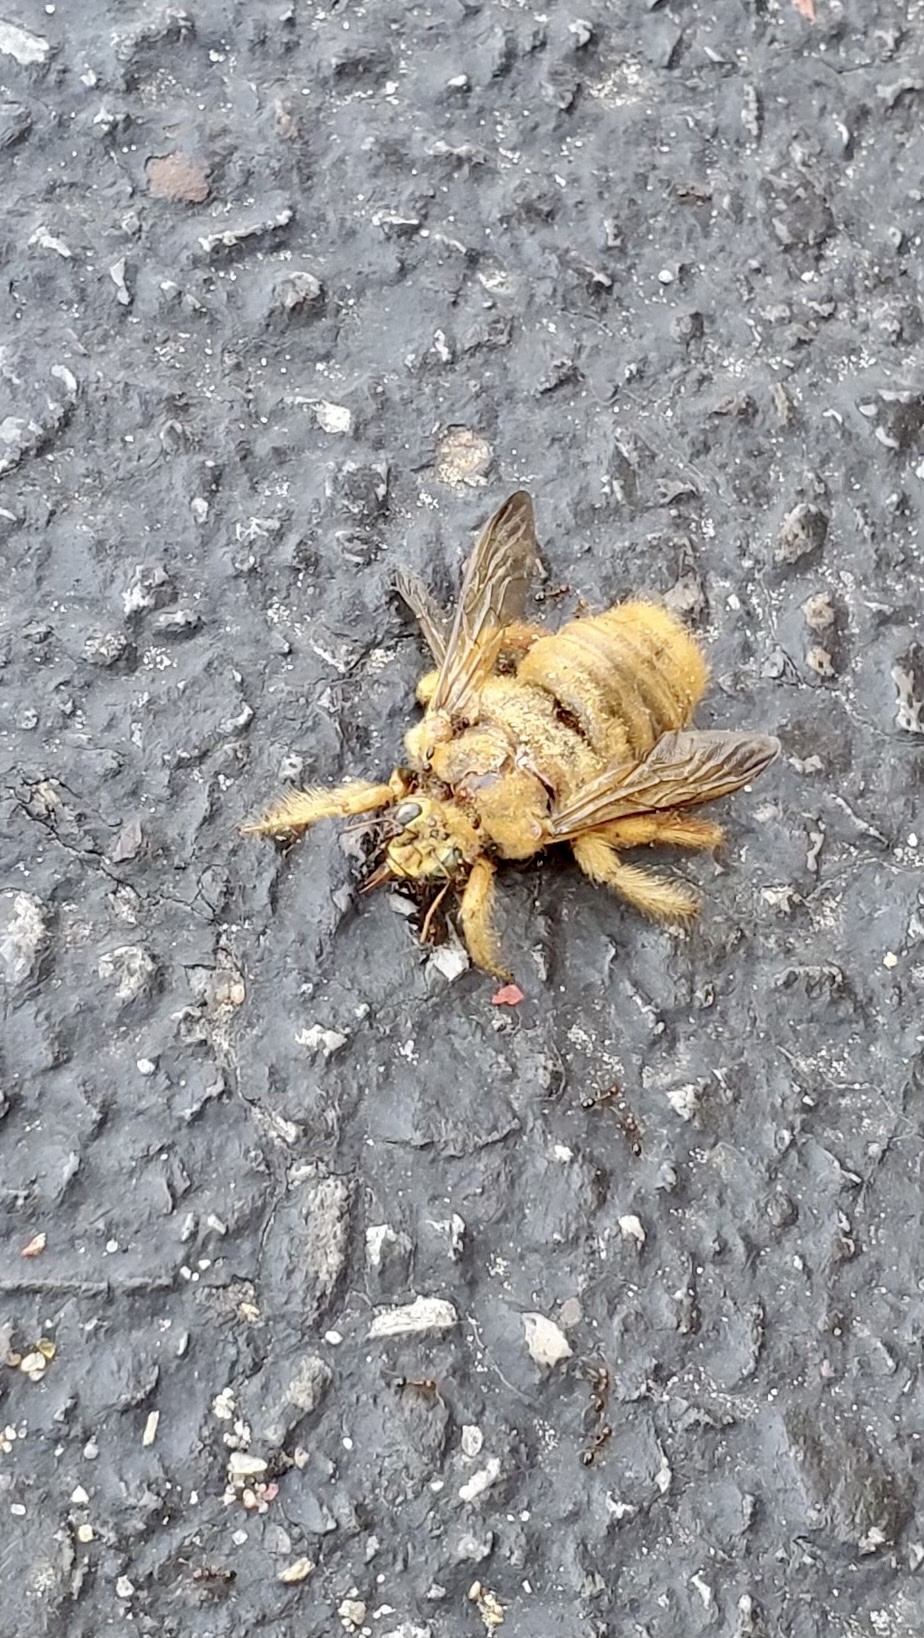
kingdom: Animalia
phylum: Arthropoda
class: Insecta
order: Hymenoptera
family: Apidae
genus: Xylocopa
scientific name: Xylocopa sonorina
